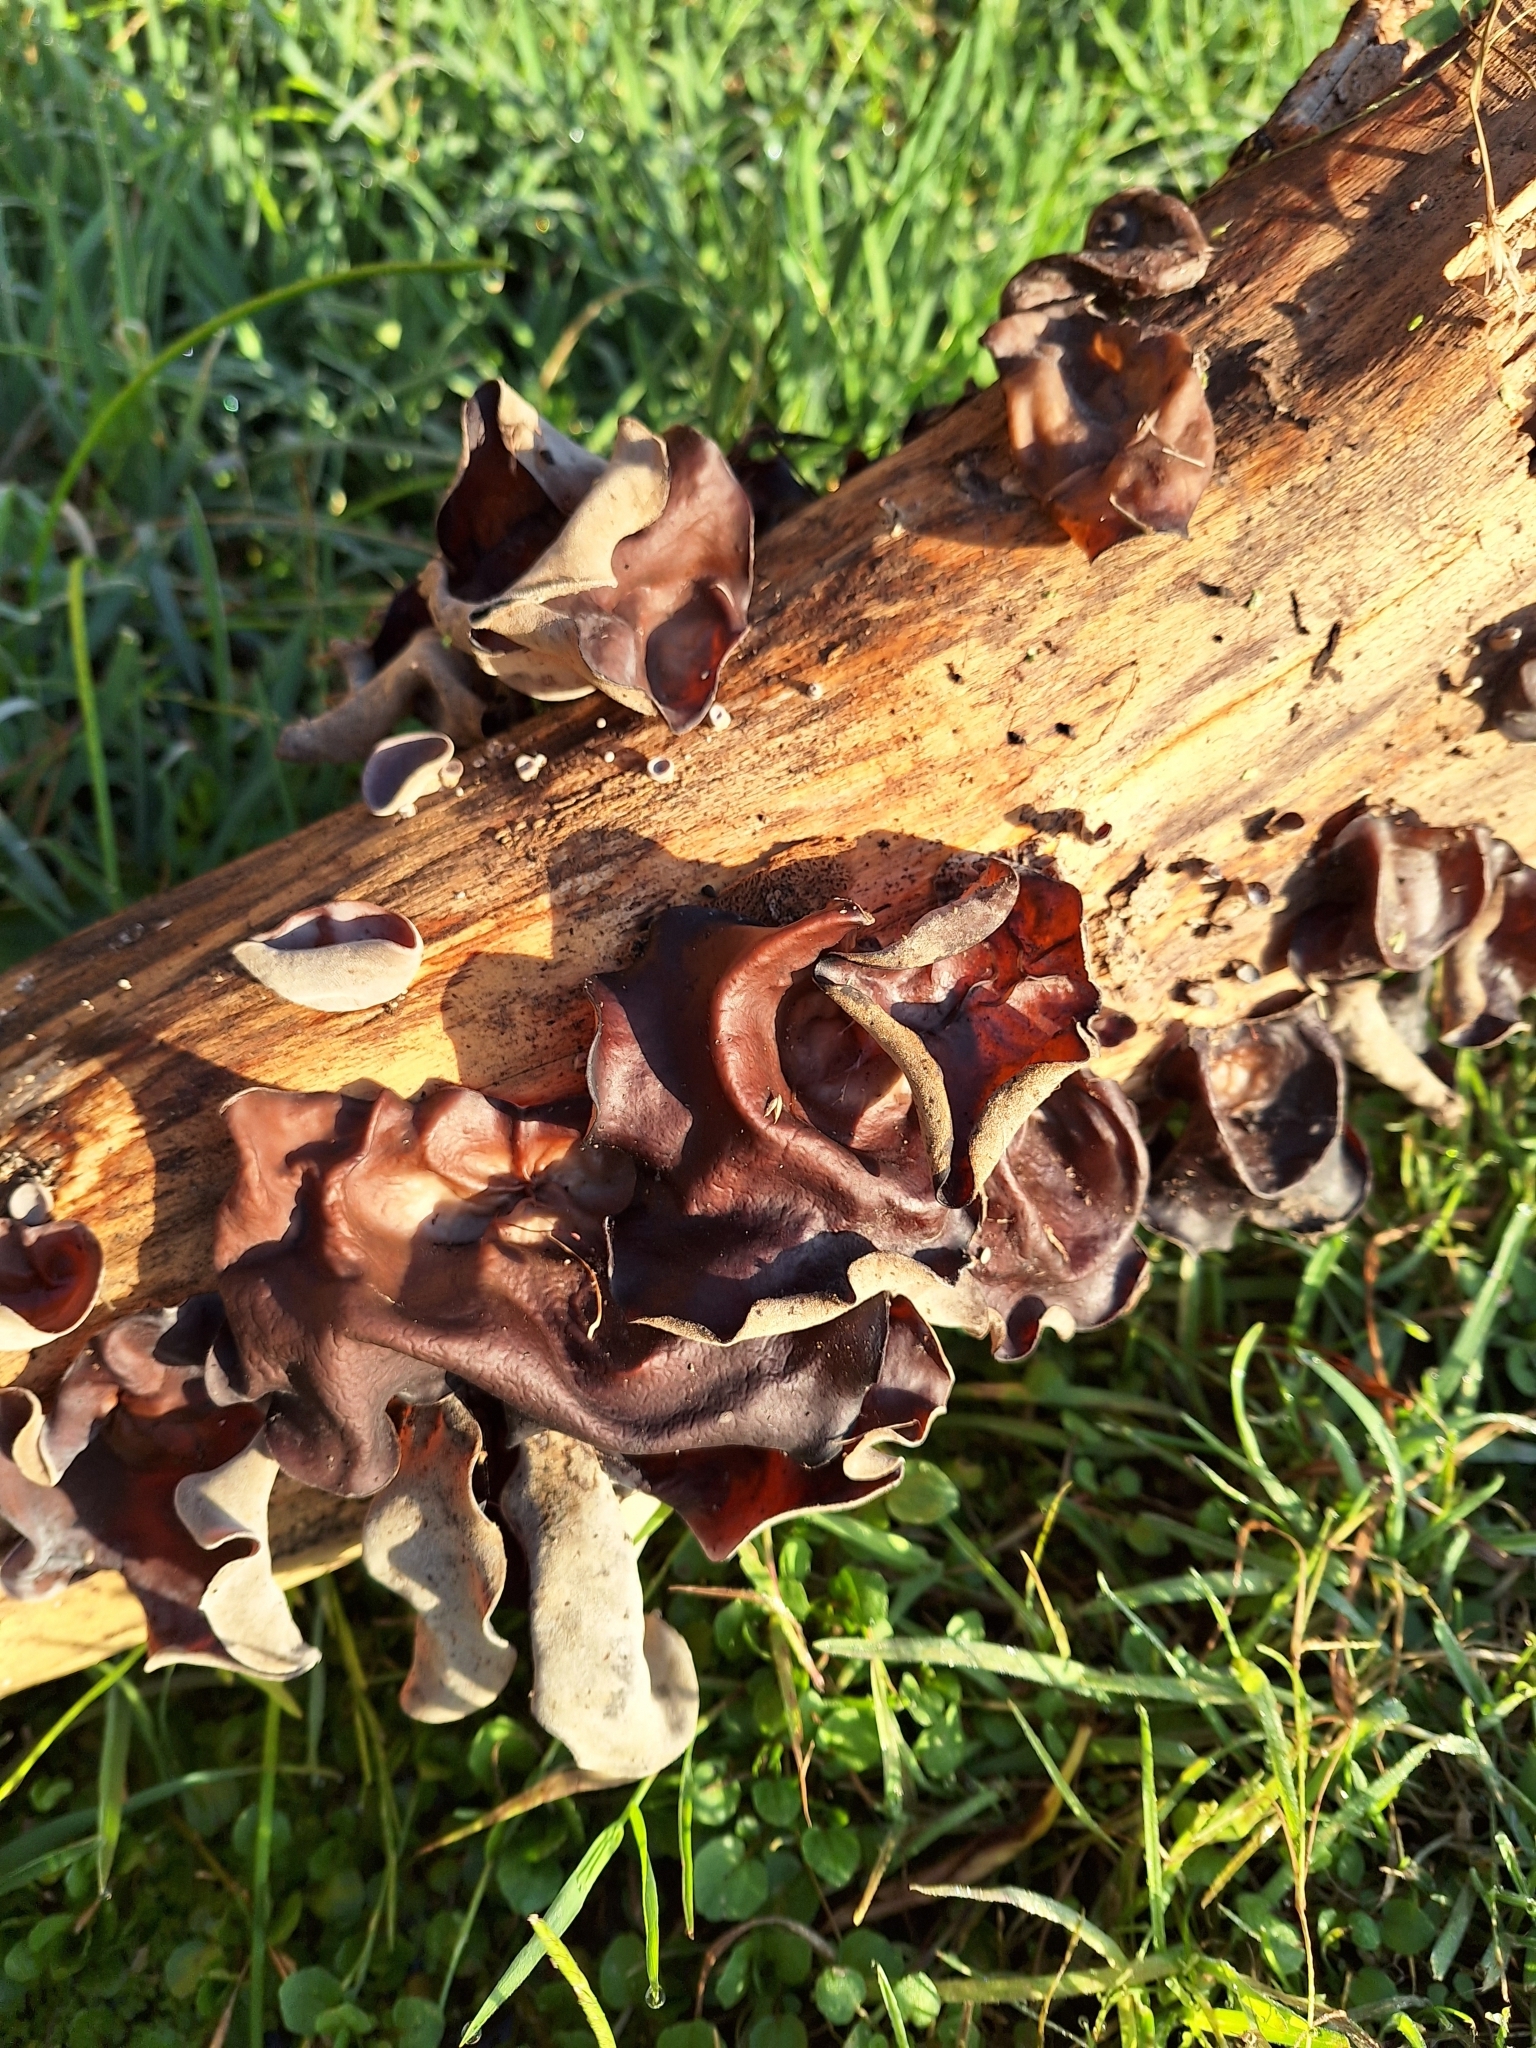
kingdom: Fungi
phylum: Basidiomycota
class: Agaricomycetes
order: Auriculariales
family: Auriculariaceae
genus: Auricularia
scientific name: Auricularia cornea
